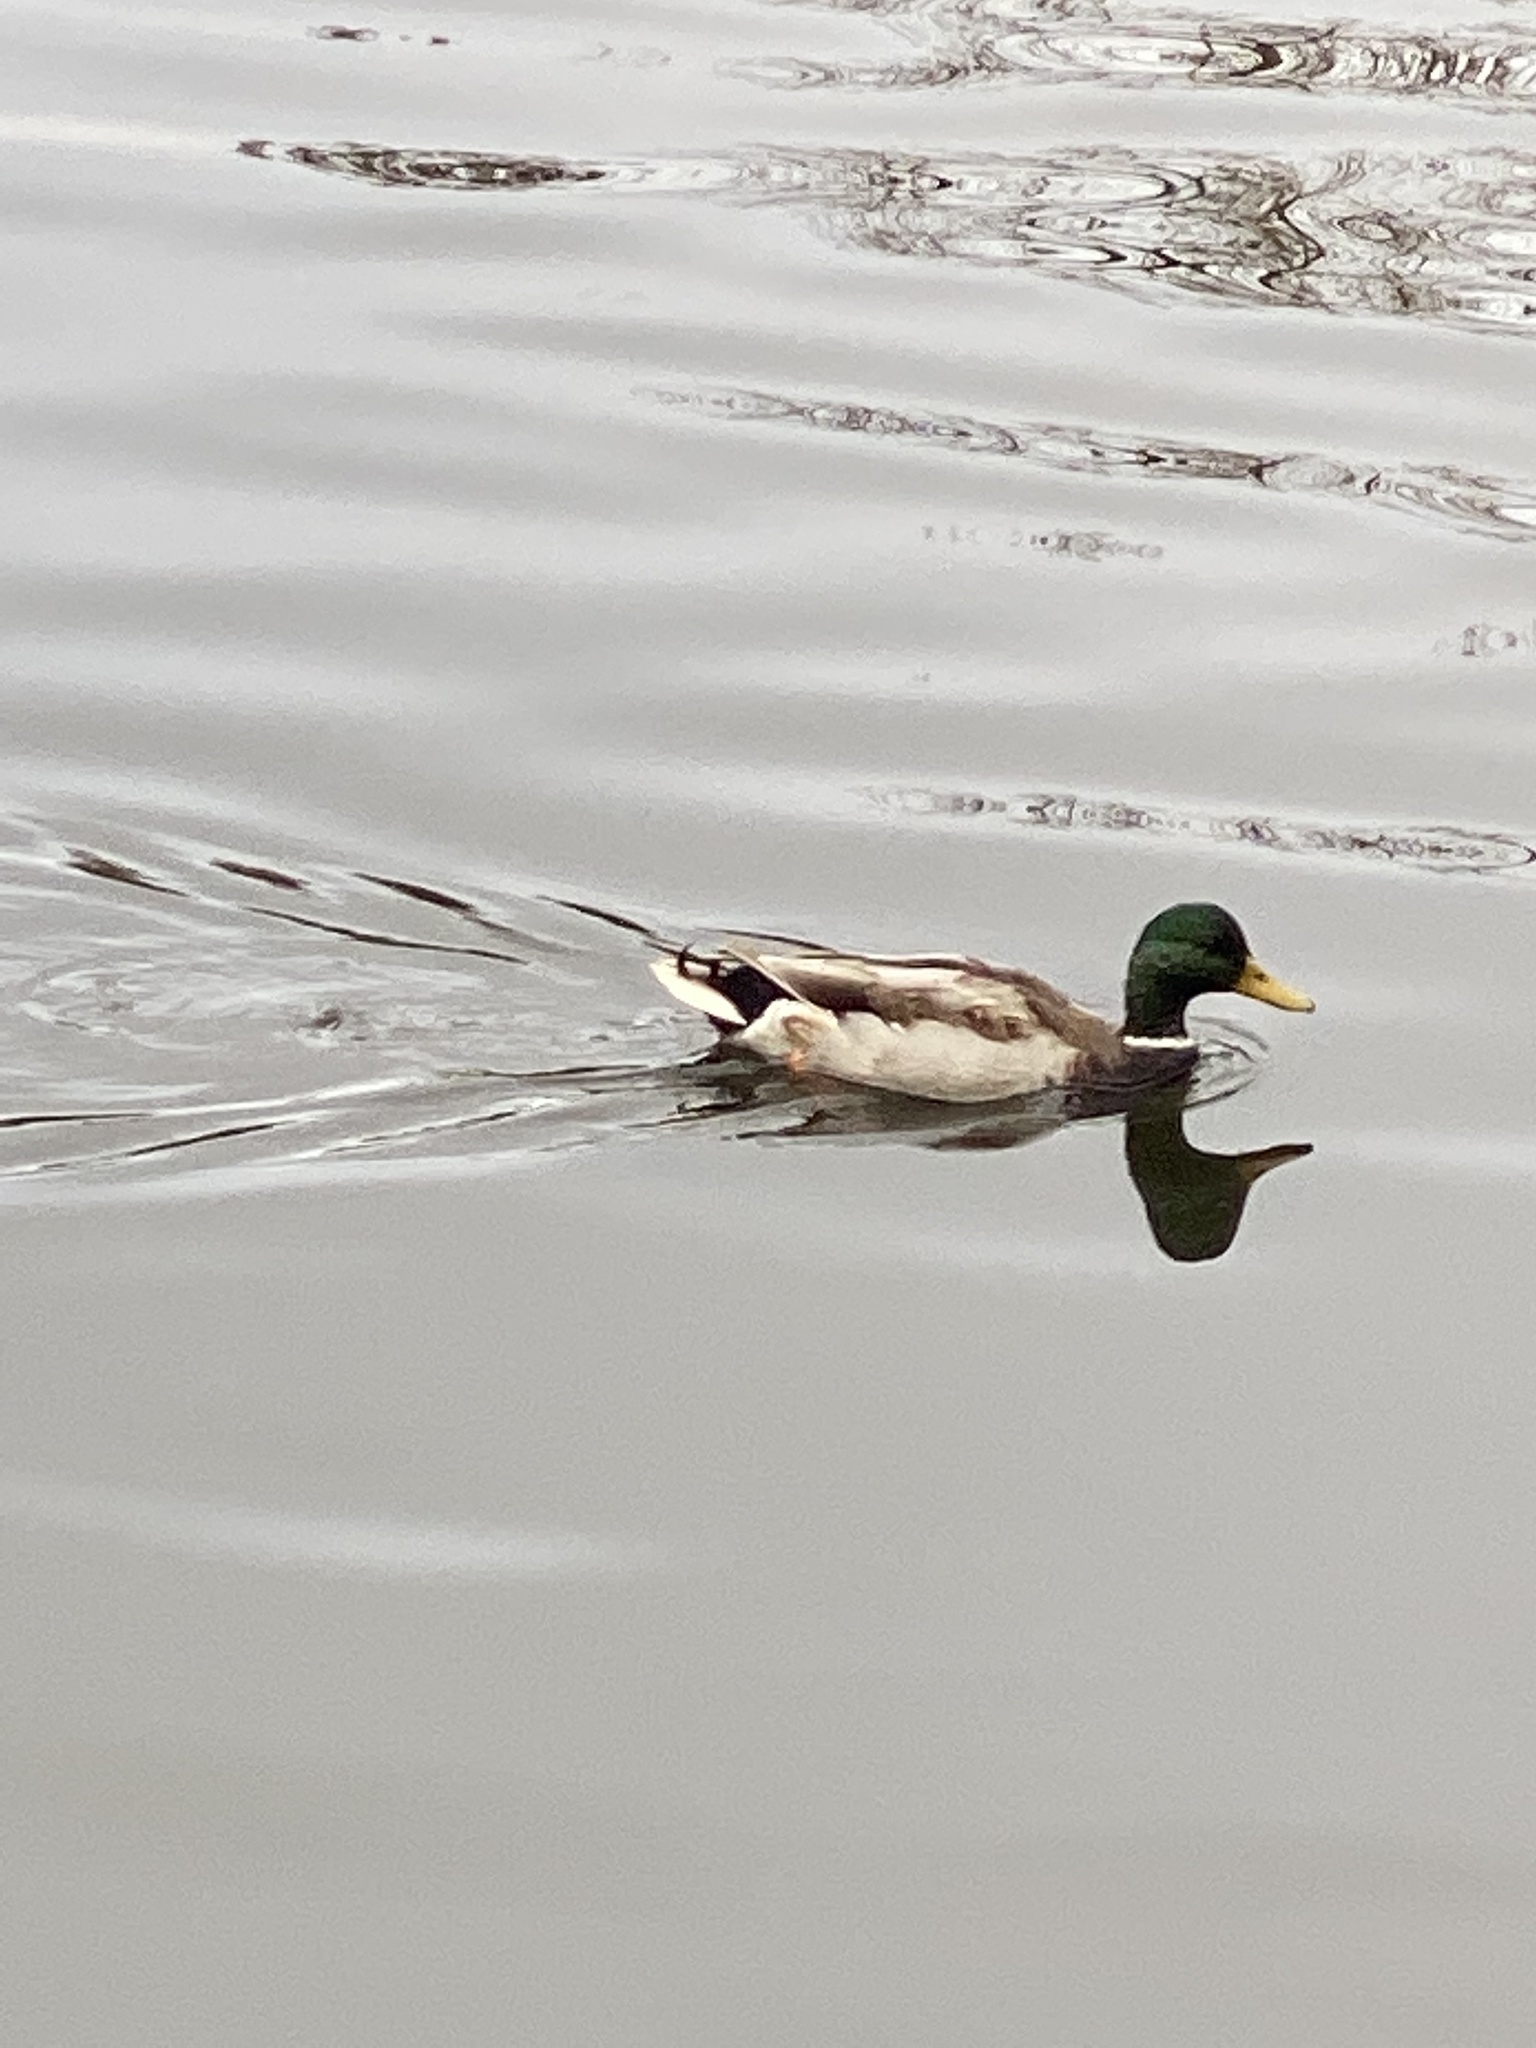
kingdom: Animalia
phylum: Chordata
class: Aves
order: Anseriformes
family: Anatidae
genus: Anas
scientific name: Anas platyrhynchos
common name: Mallard
